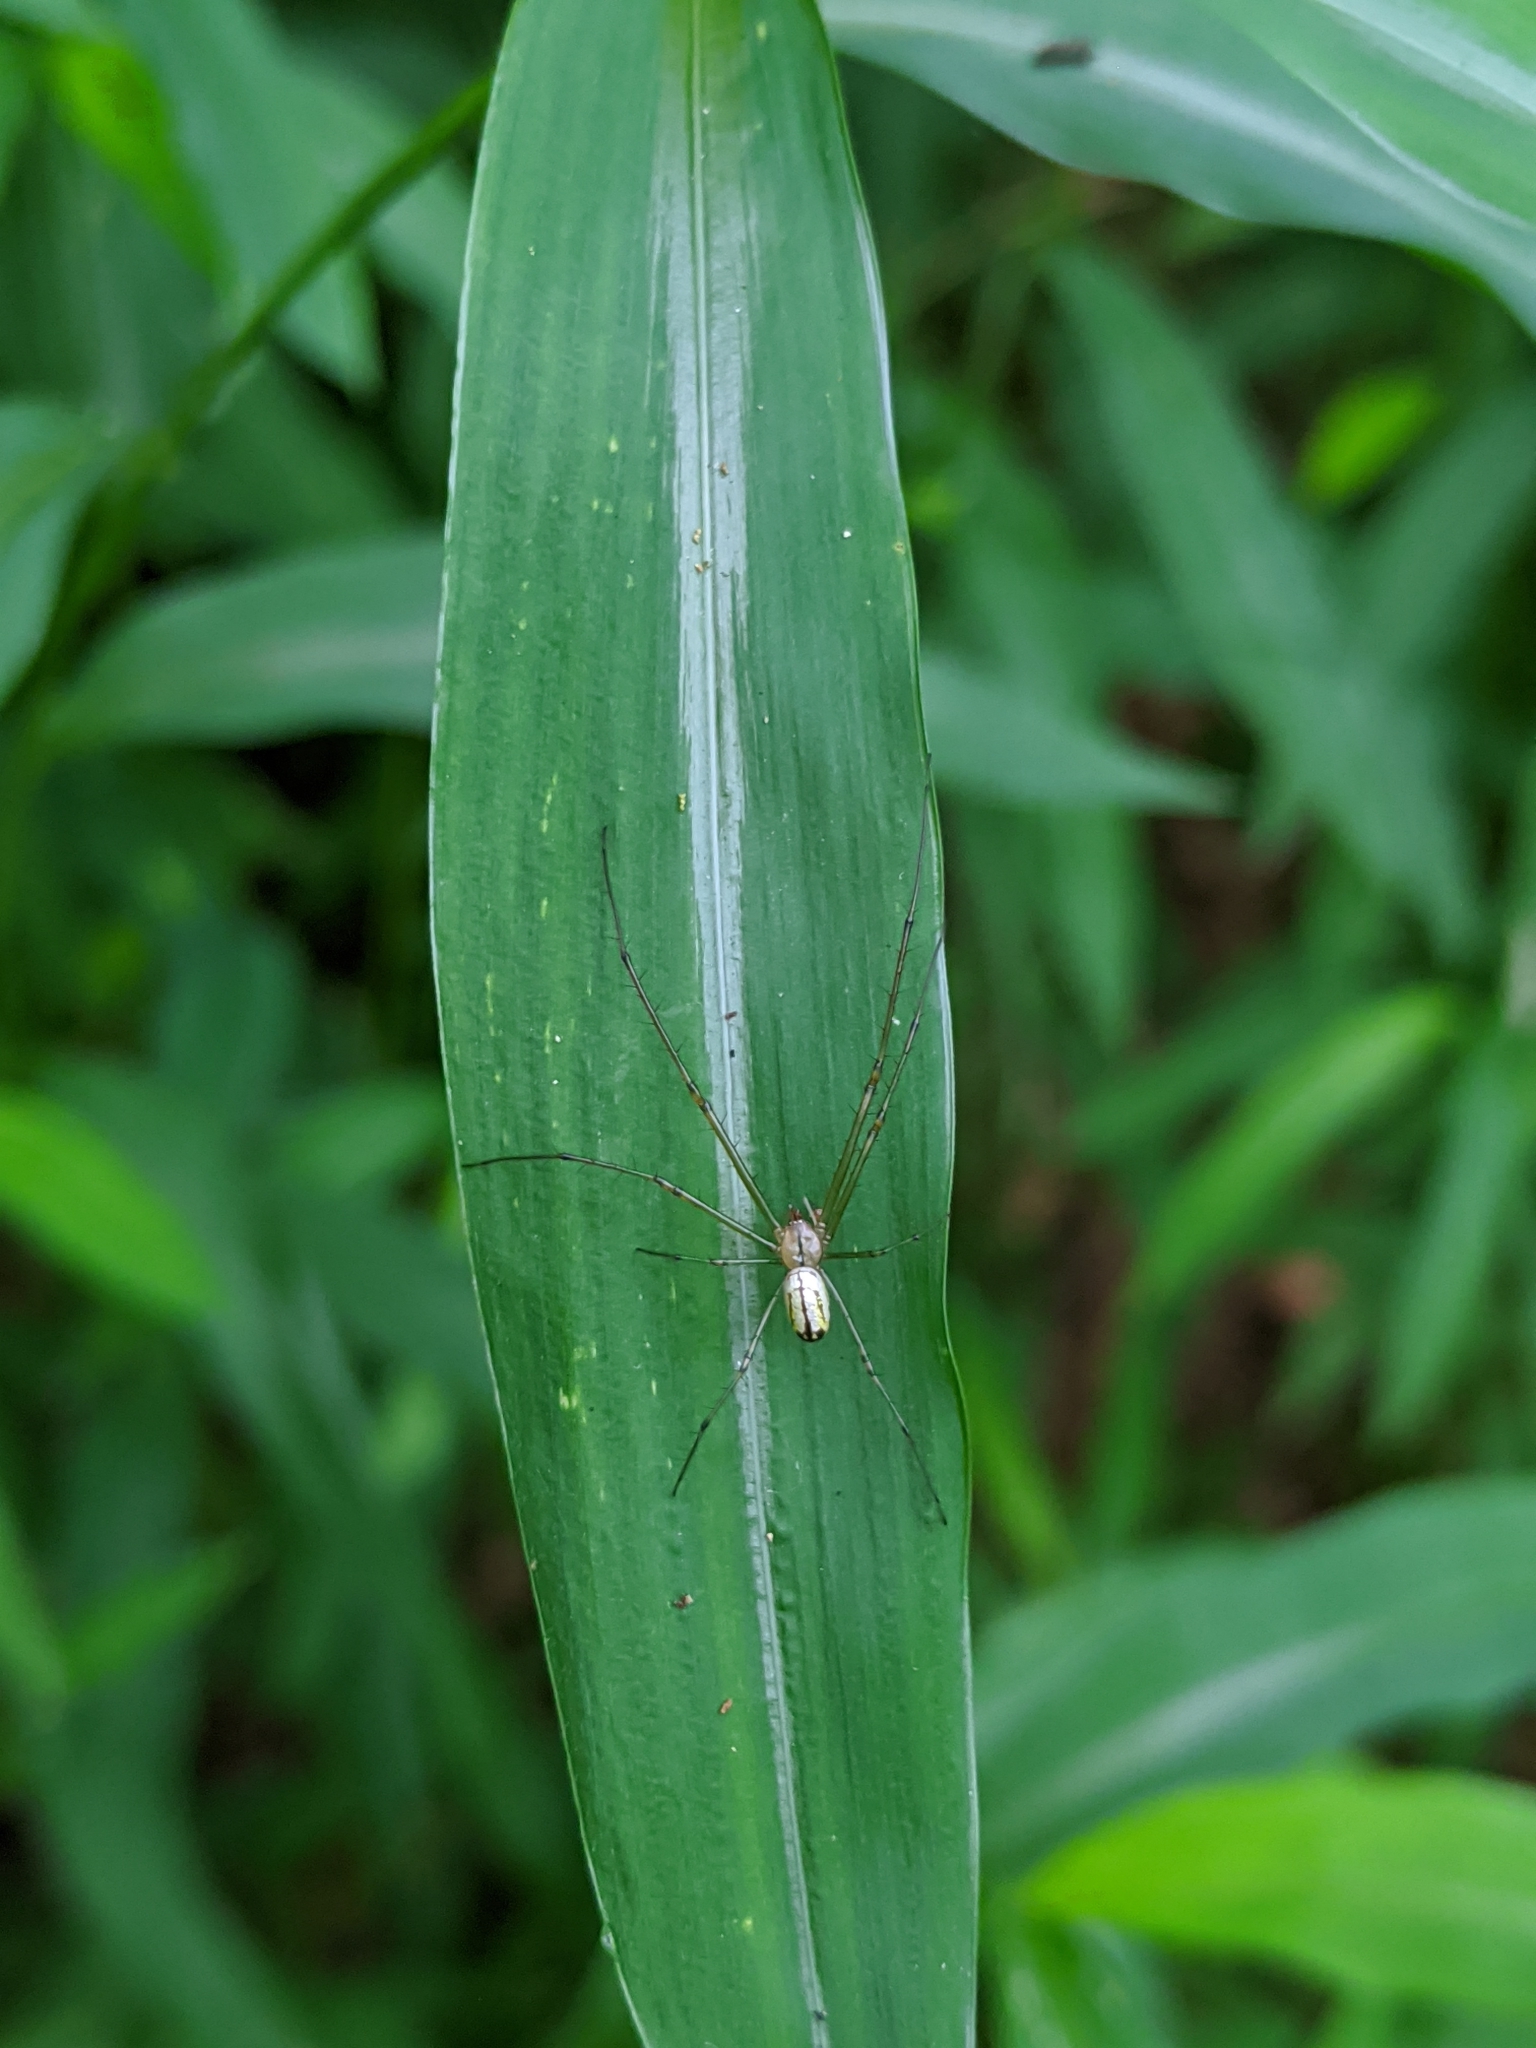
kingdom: Animalia
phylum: Arthropoda
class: Arachnida
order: Araneae
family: Tetragnathidae
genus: Leucauge
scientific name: Leucauge venusta
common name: Longjawed orb weavers
